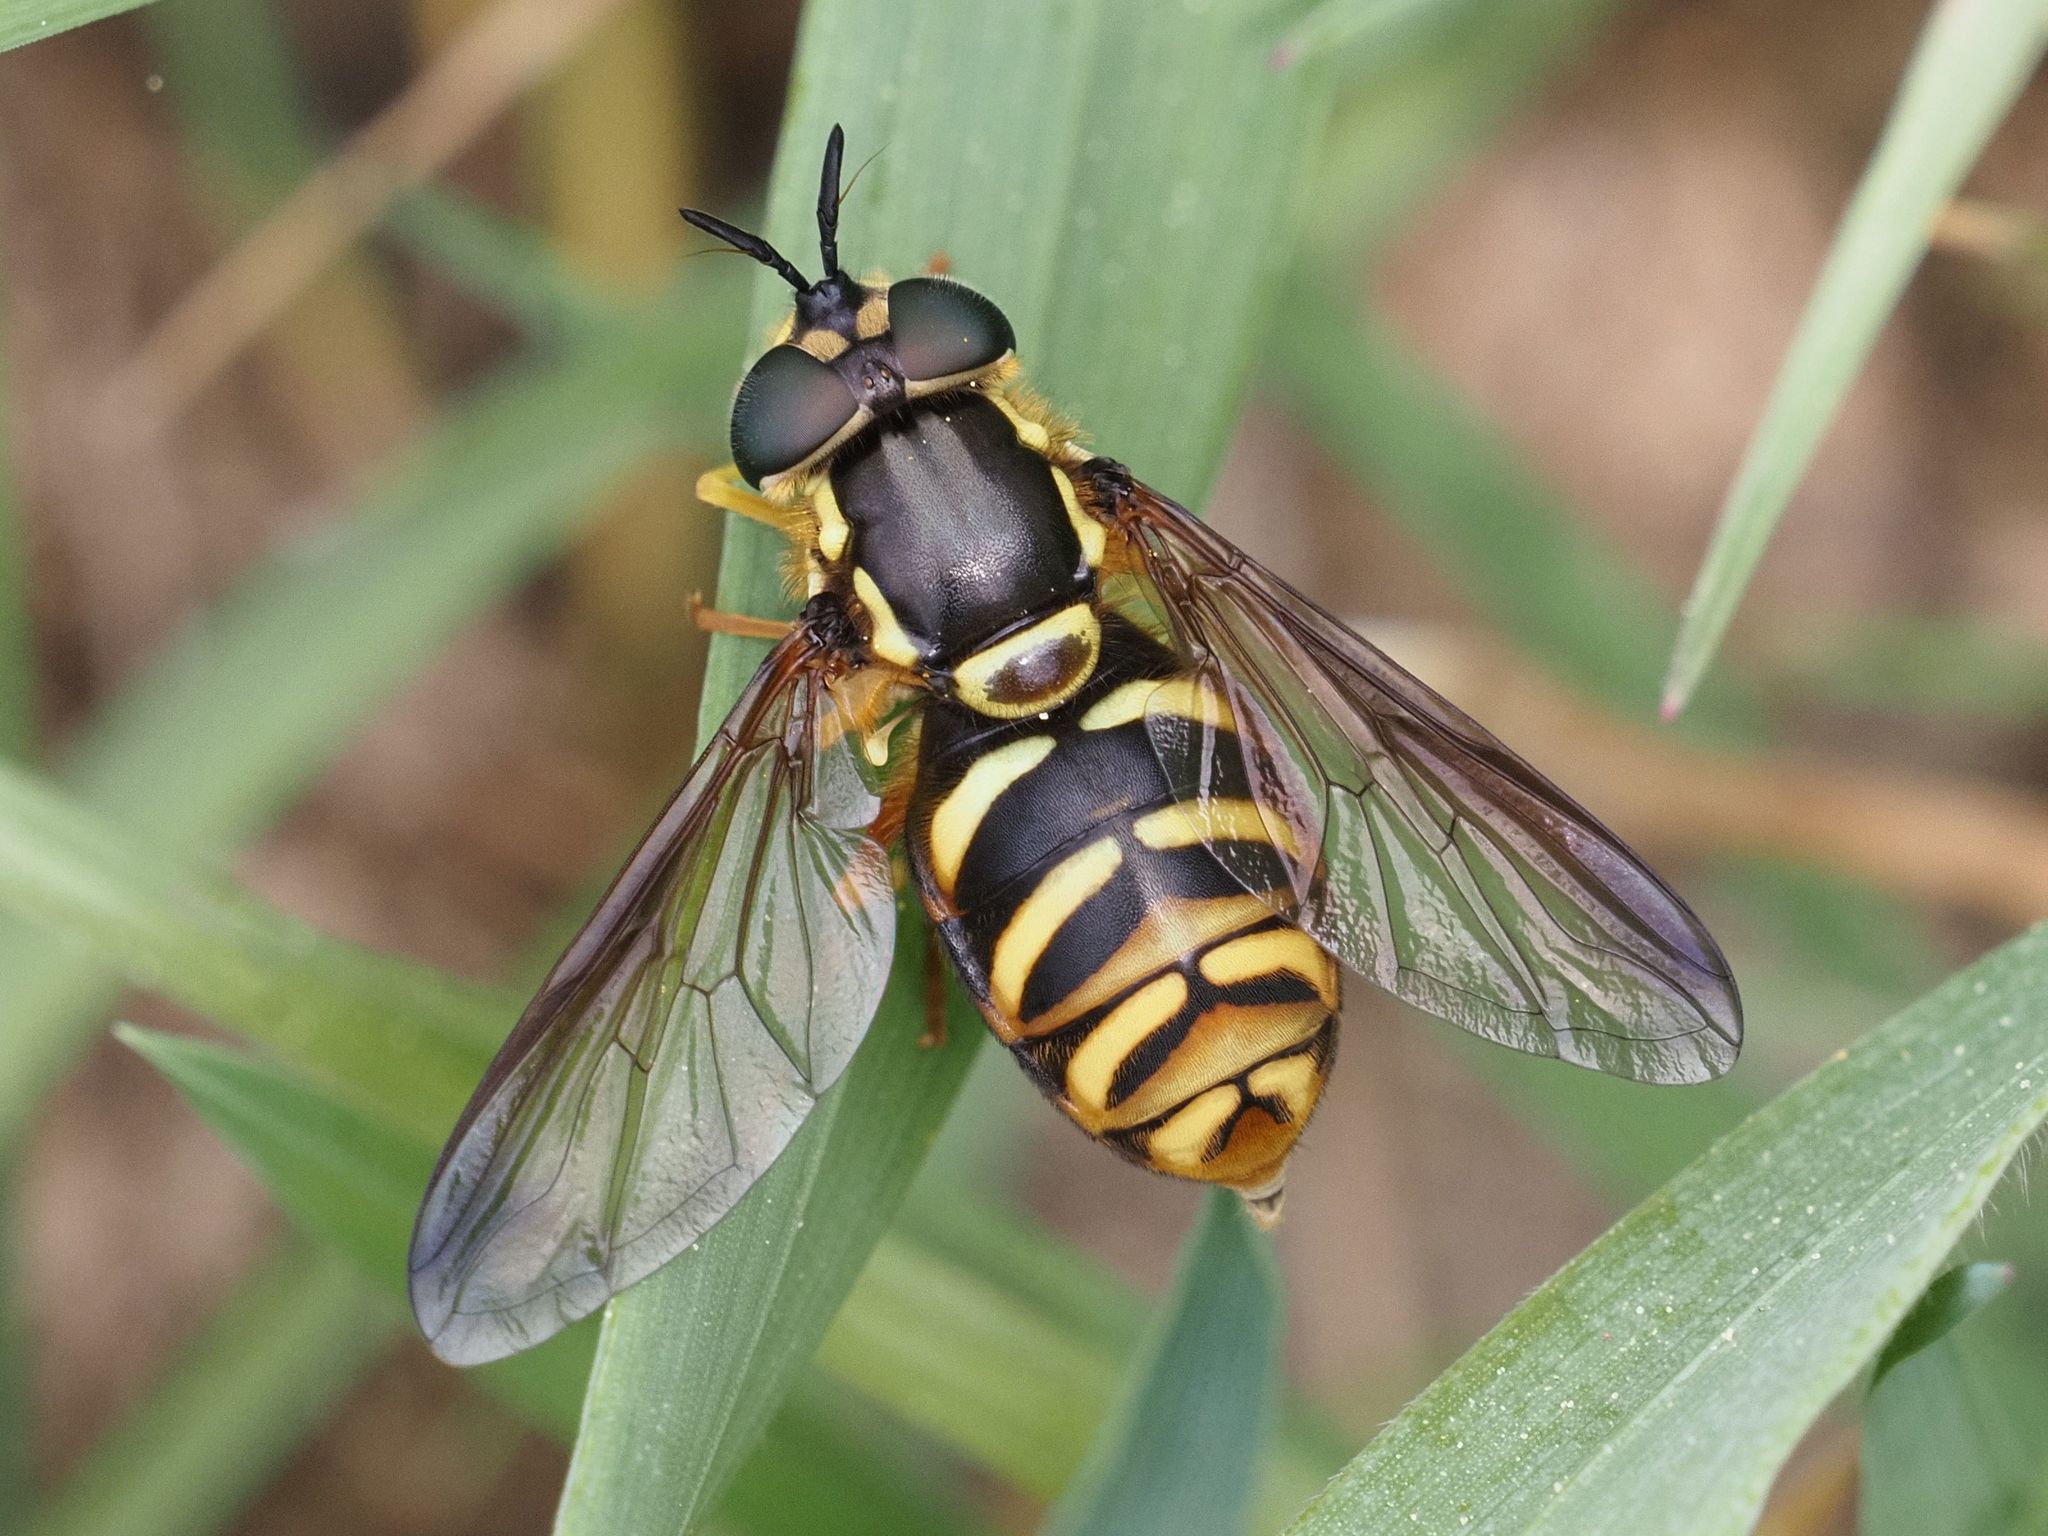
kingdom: Animalia
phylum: Arthropoda
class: Insecta
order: Diptera
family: Syrphidae
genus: Chrysotoxum
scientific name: Chrysotoxum intermedium
